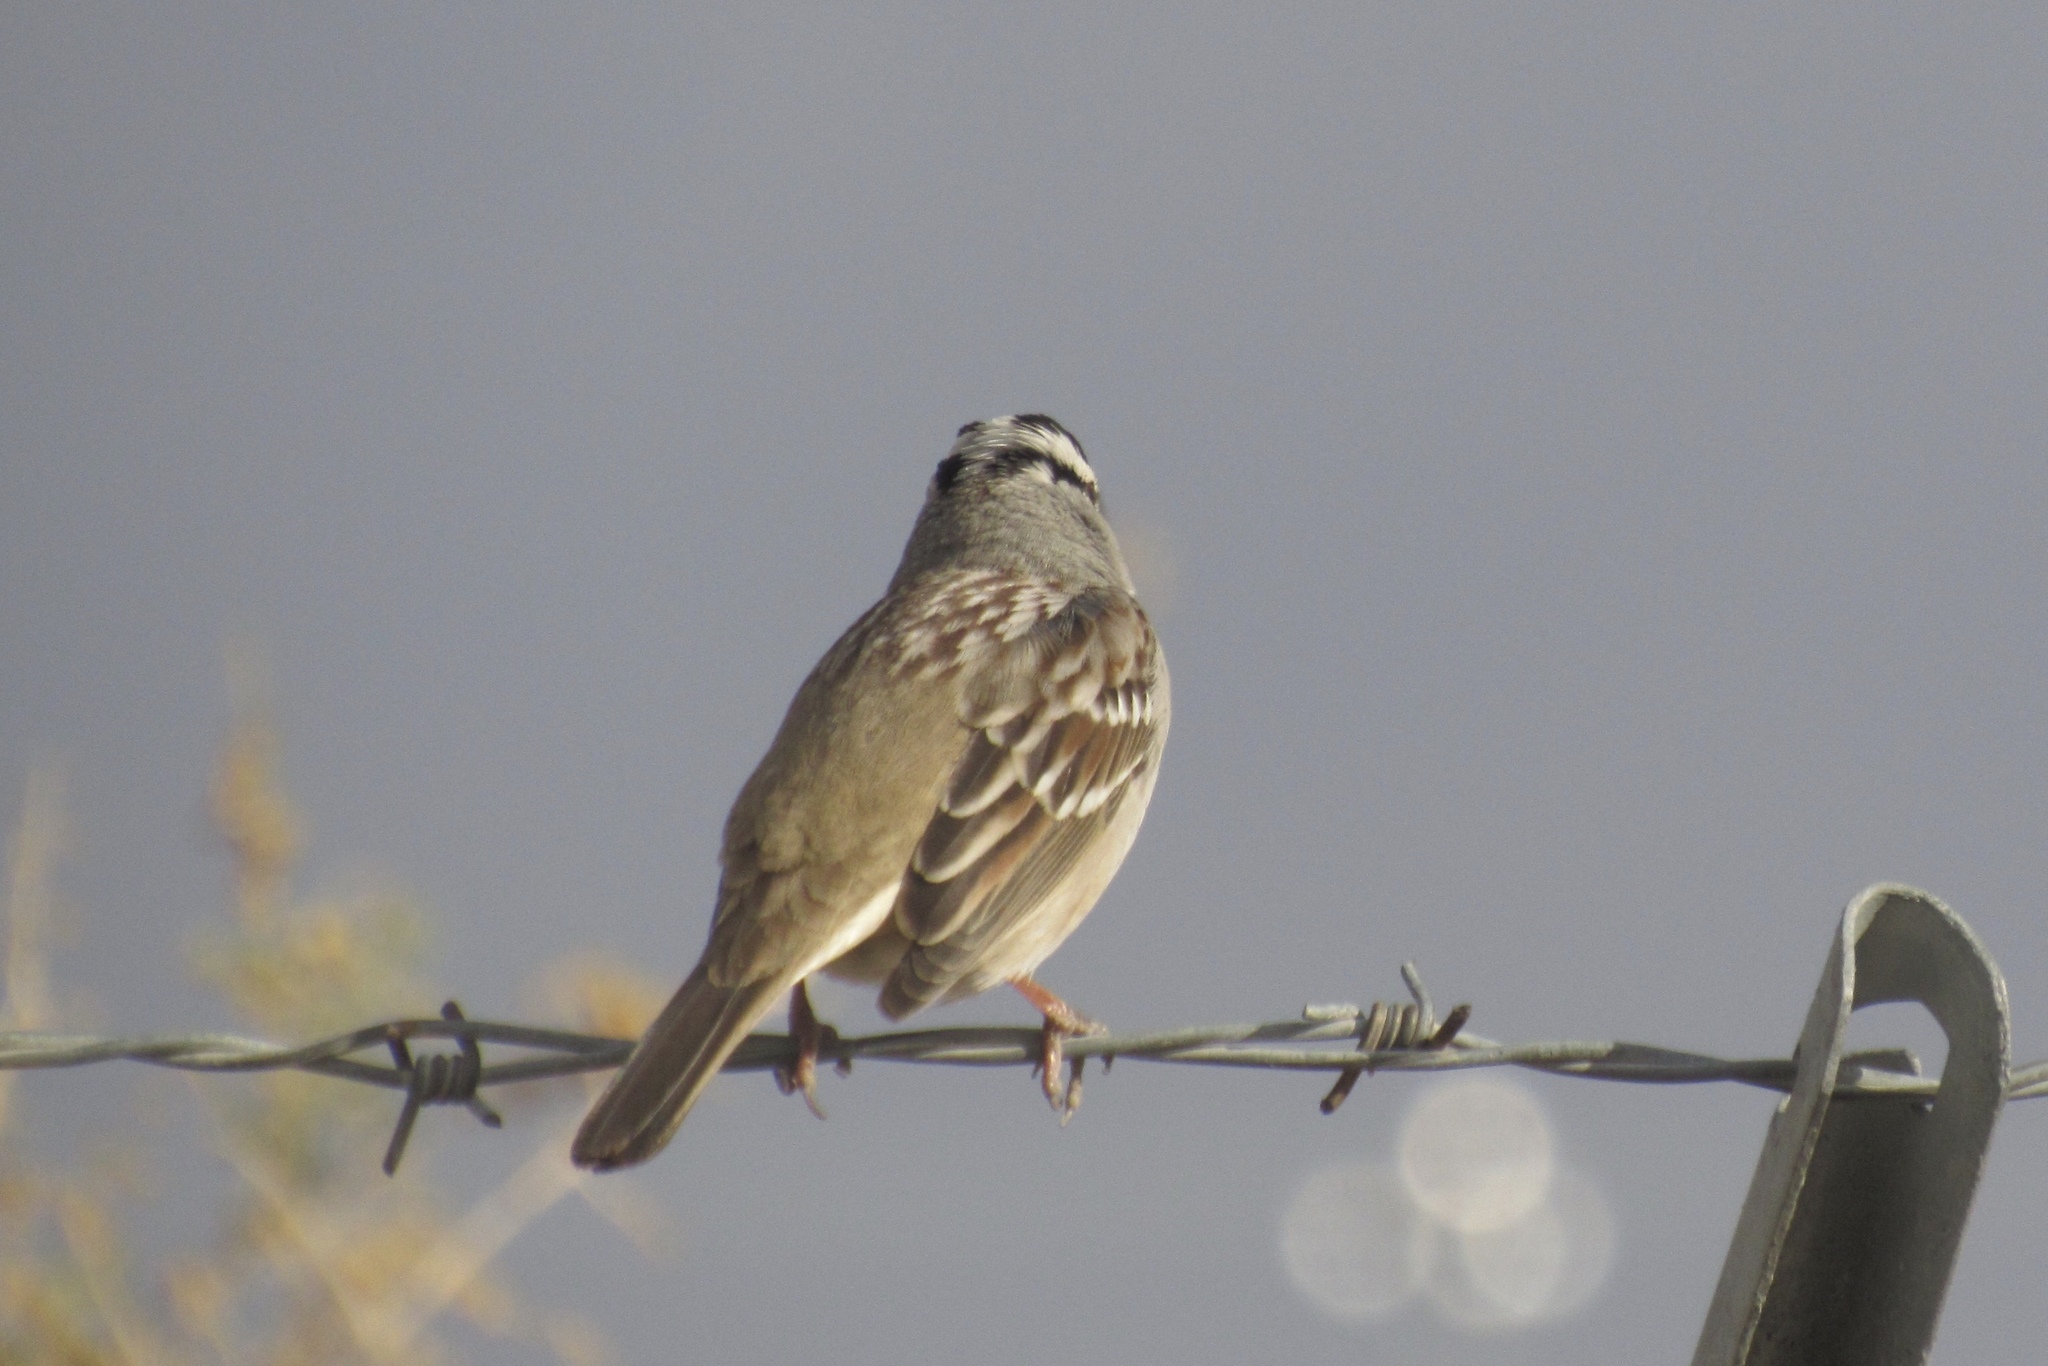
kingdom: Animalia
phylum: Chordata
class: Aves
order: Passeriformes
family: Passerellidae
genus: Zonotrichia
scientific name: Zonotrichia leucophrys
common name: White-crowned sparrow
